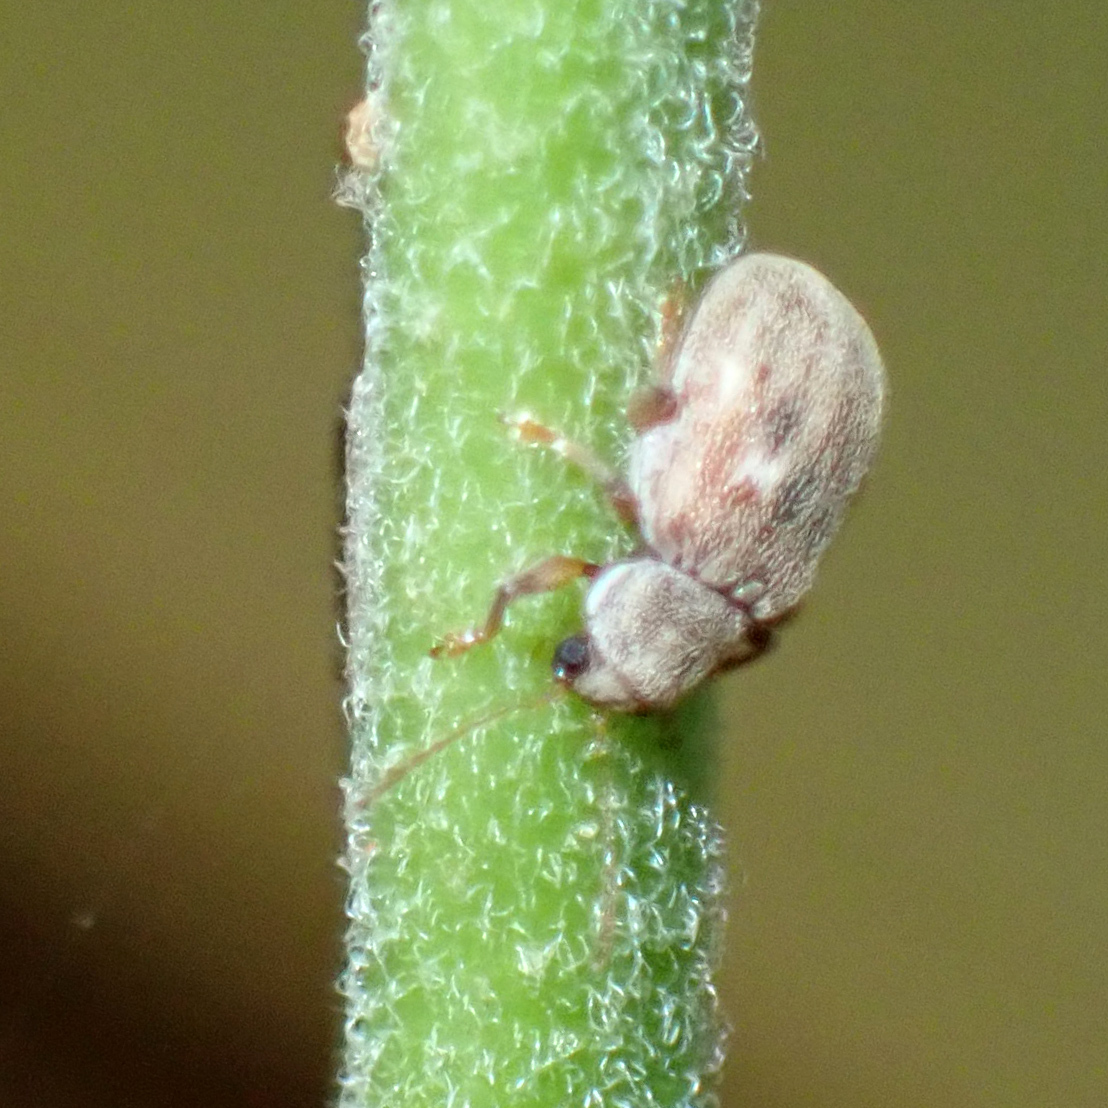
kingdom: Animalia
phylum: Arthropoda
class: Insecta
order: Coleoptera
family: Chrysomelidae
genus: Demotina
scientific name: Demotina modesta
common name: Leaf beetle
